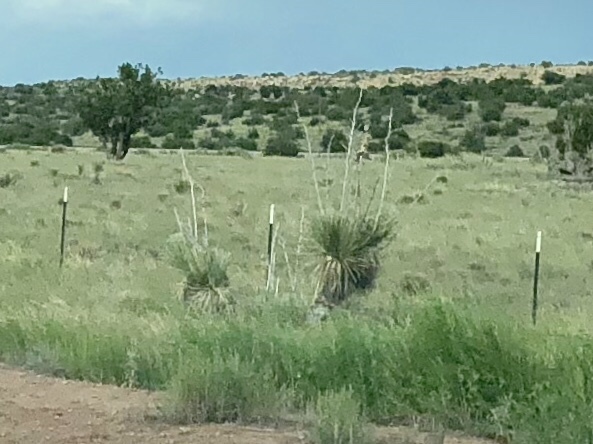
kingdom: Plantae
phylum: Tracheophyta
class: Liliopsida
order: Asparagales
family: Asparagaceae
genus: Yucca
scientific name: Yucca elata
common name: Palmella
